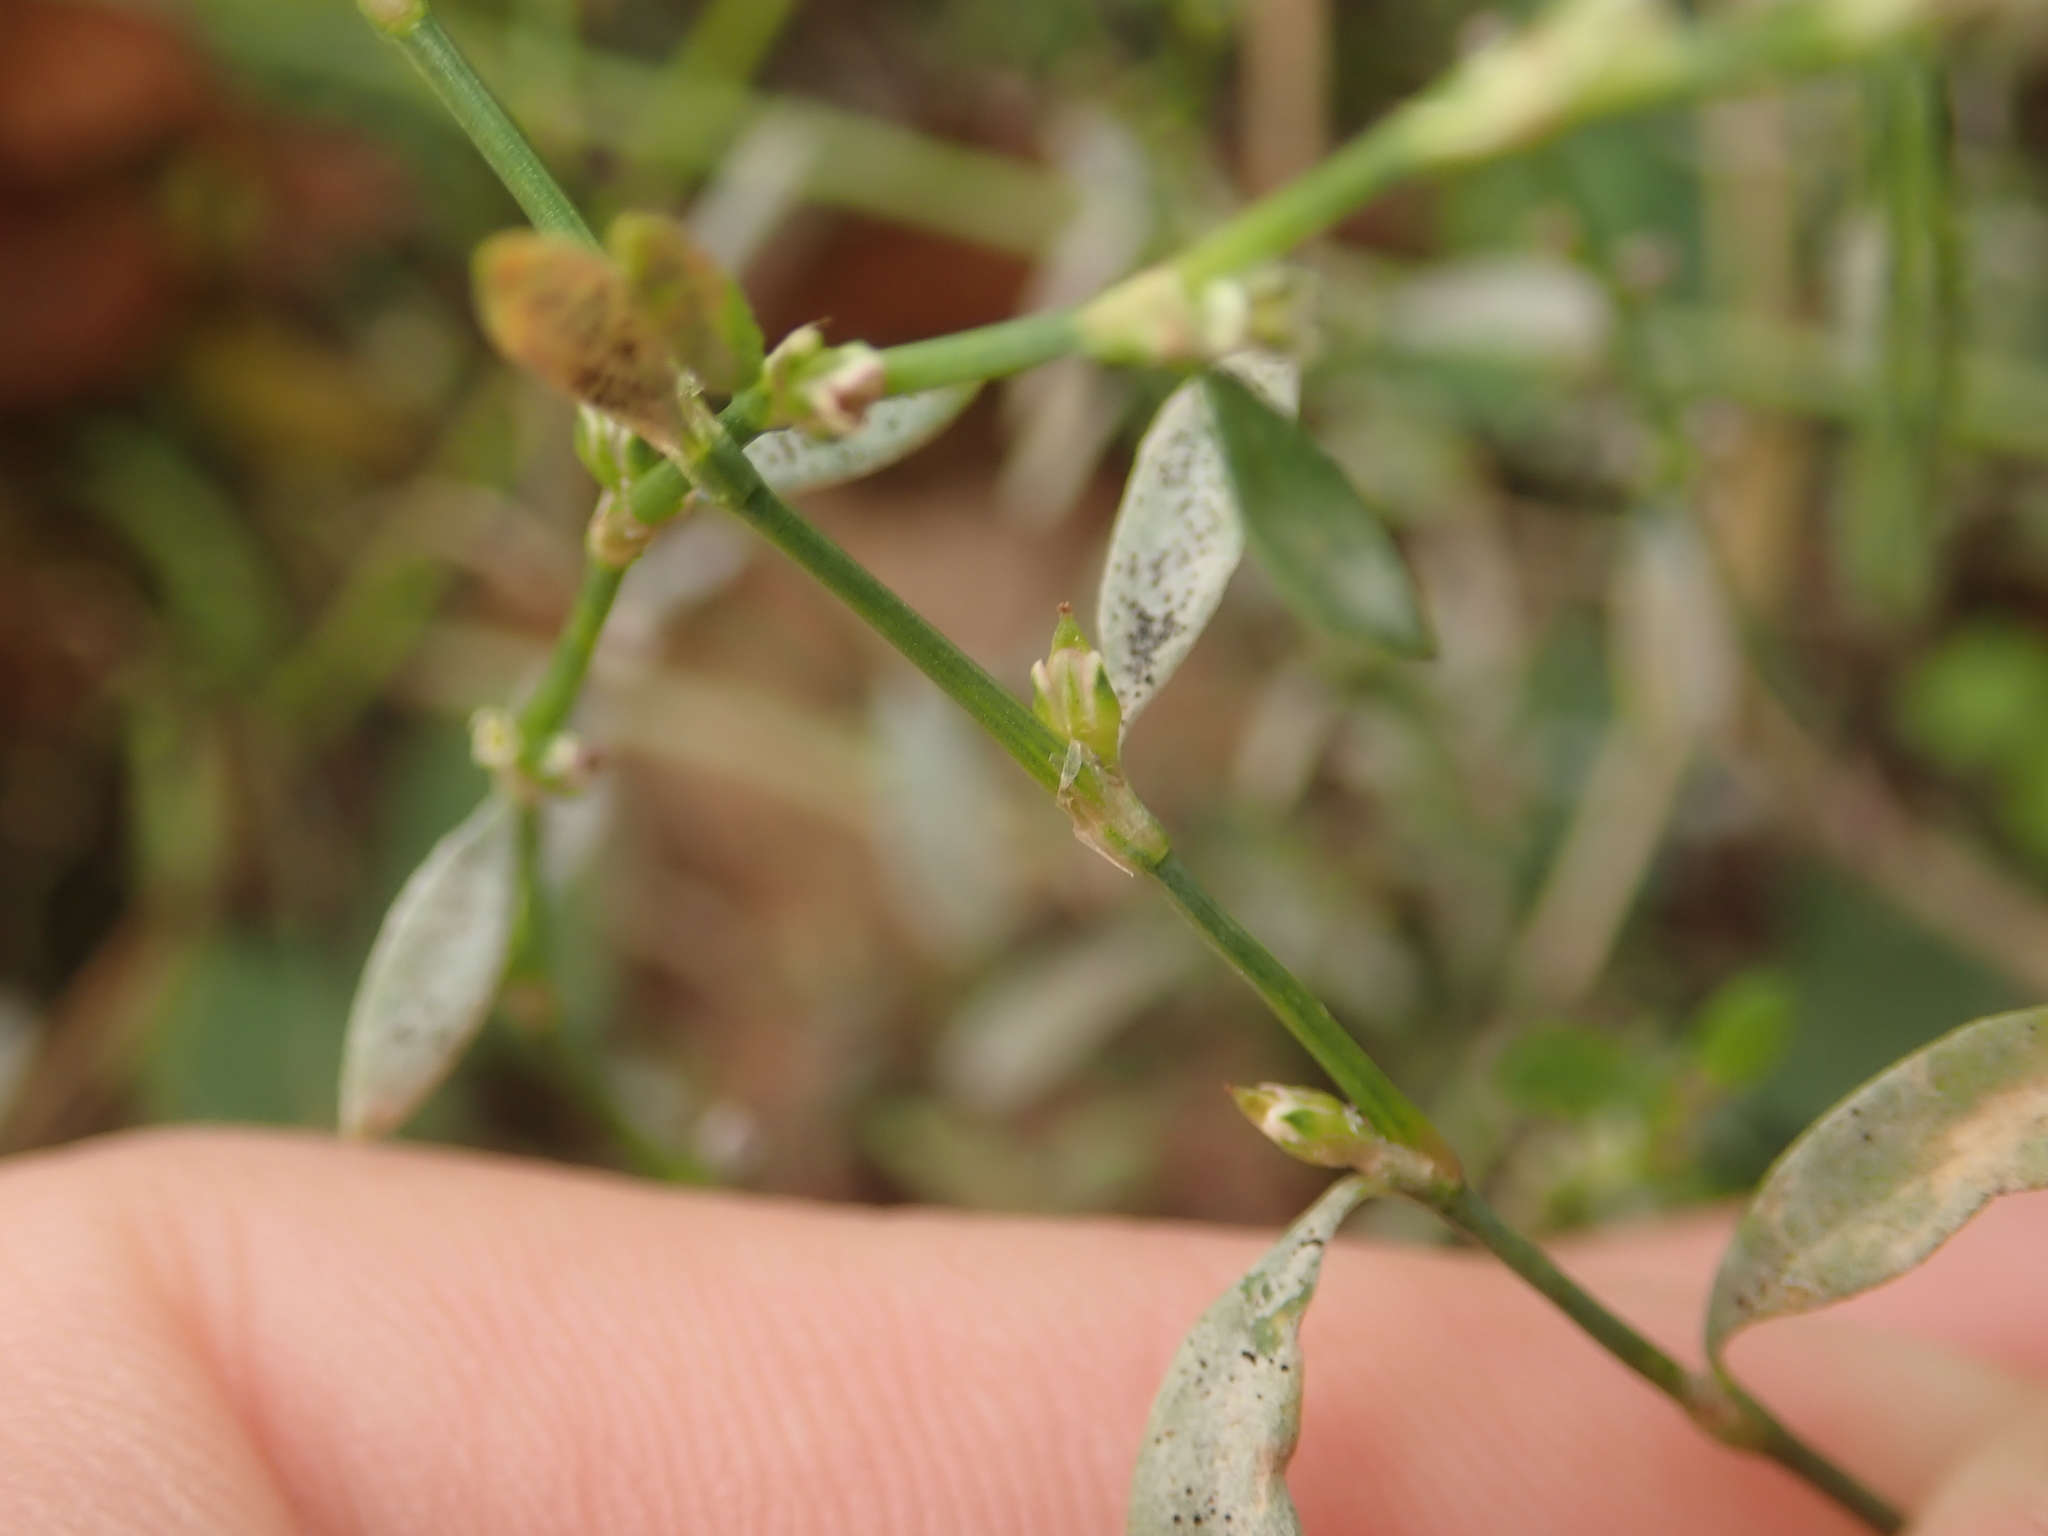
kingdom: Fungi
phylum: Ascomycota
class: Leotiomycetes
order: Helotiales
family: Erysiphaceae
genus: Erysiphe
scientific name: Erysiphe polygoni
